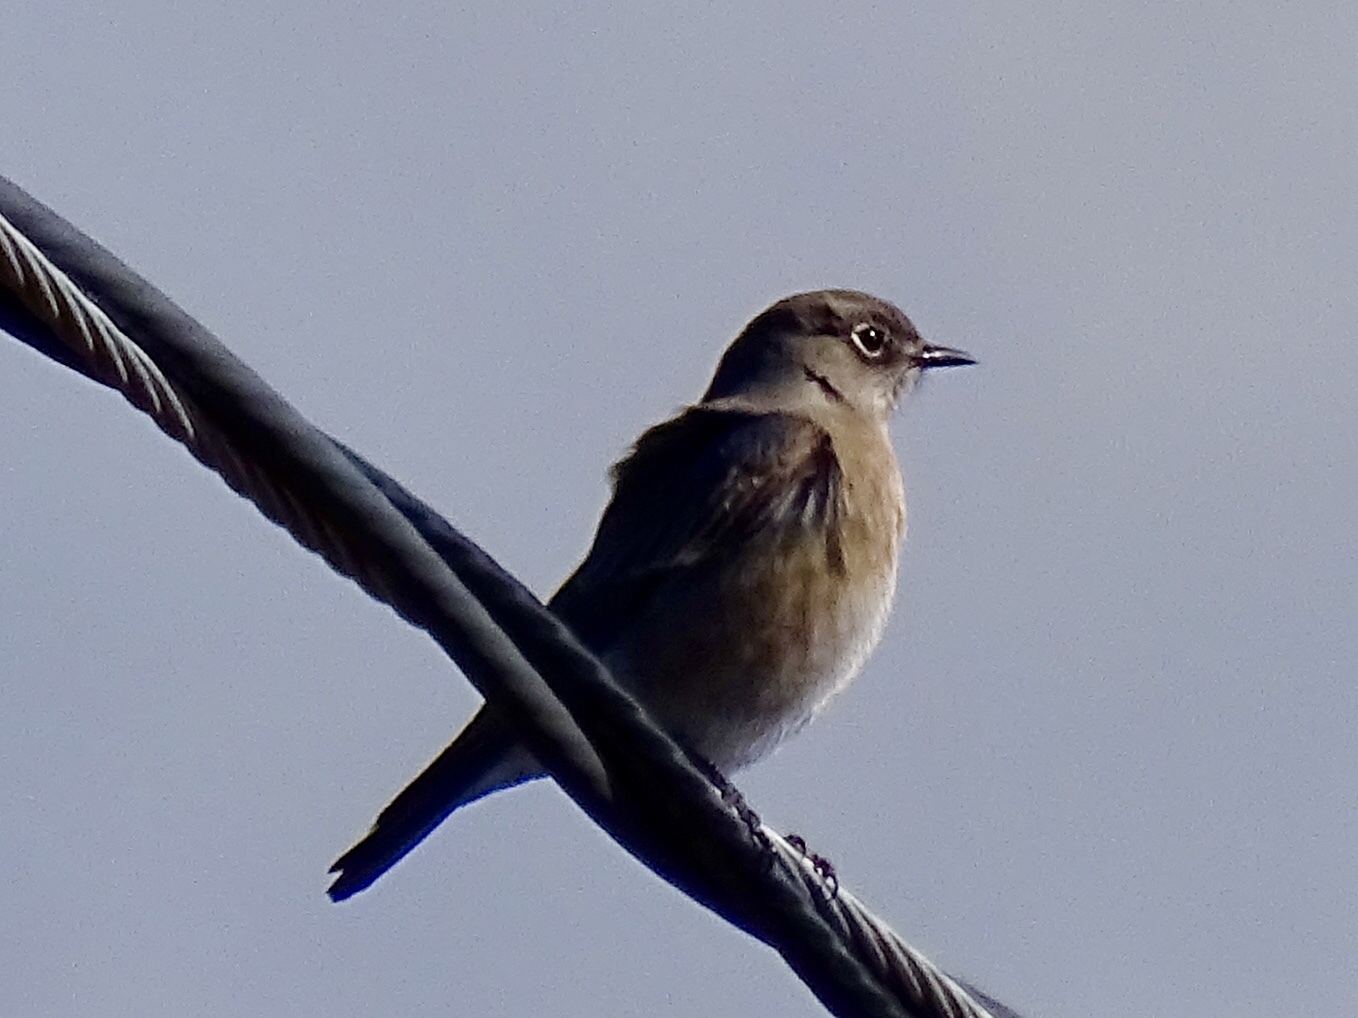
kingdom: Animalia
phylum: Chordata
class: Aves
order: Passeriformes
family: Turdidae
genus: Sialia
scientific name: Sialia currucoides
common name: Mountain bluebird
